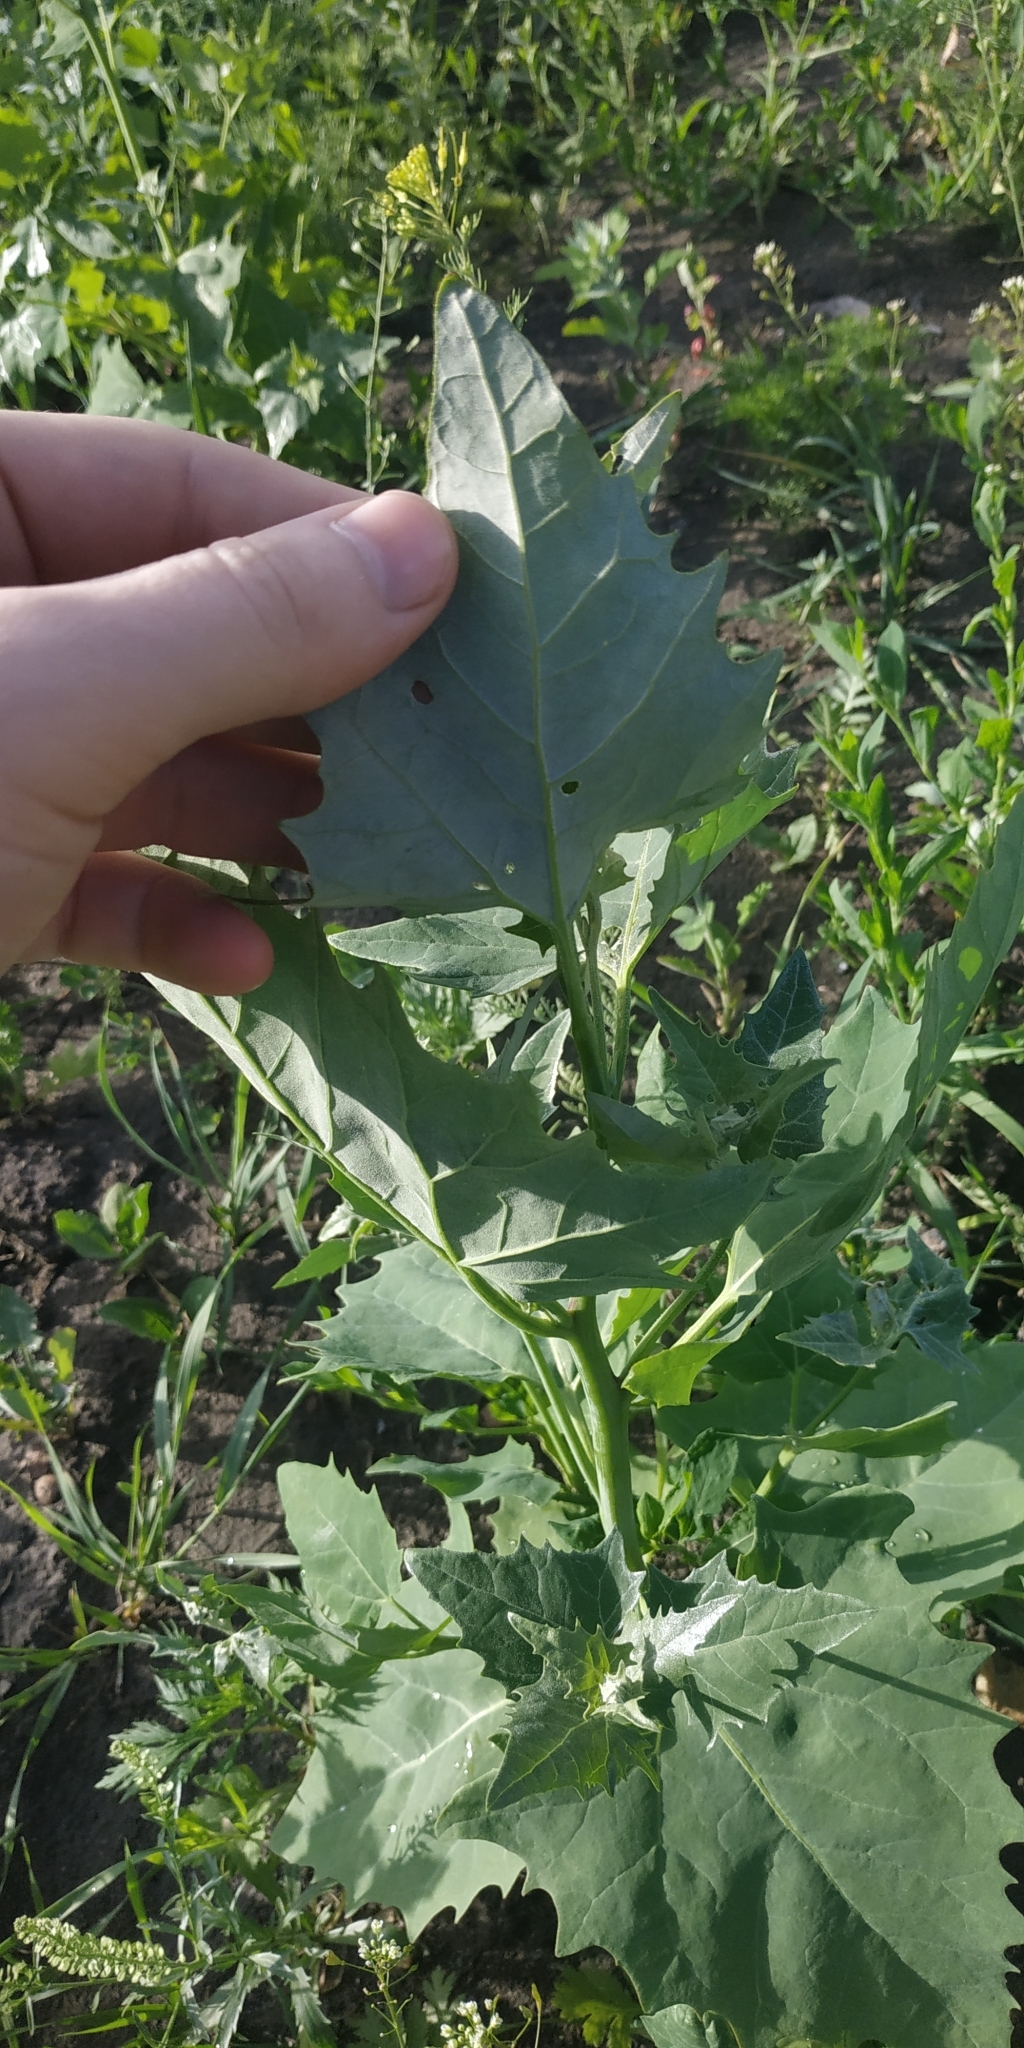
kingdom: Plantae
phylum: Tracheophyta
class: Magnoliopsida
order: Caryophyllales
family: Amaranthaceae
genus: Atriplex
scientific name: Atriplex sagittata
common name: Purple orache
